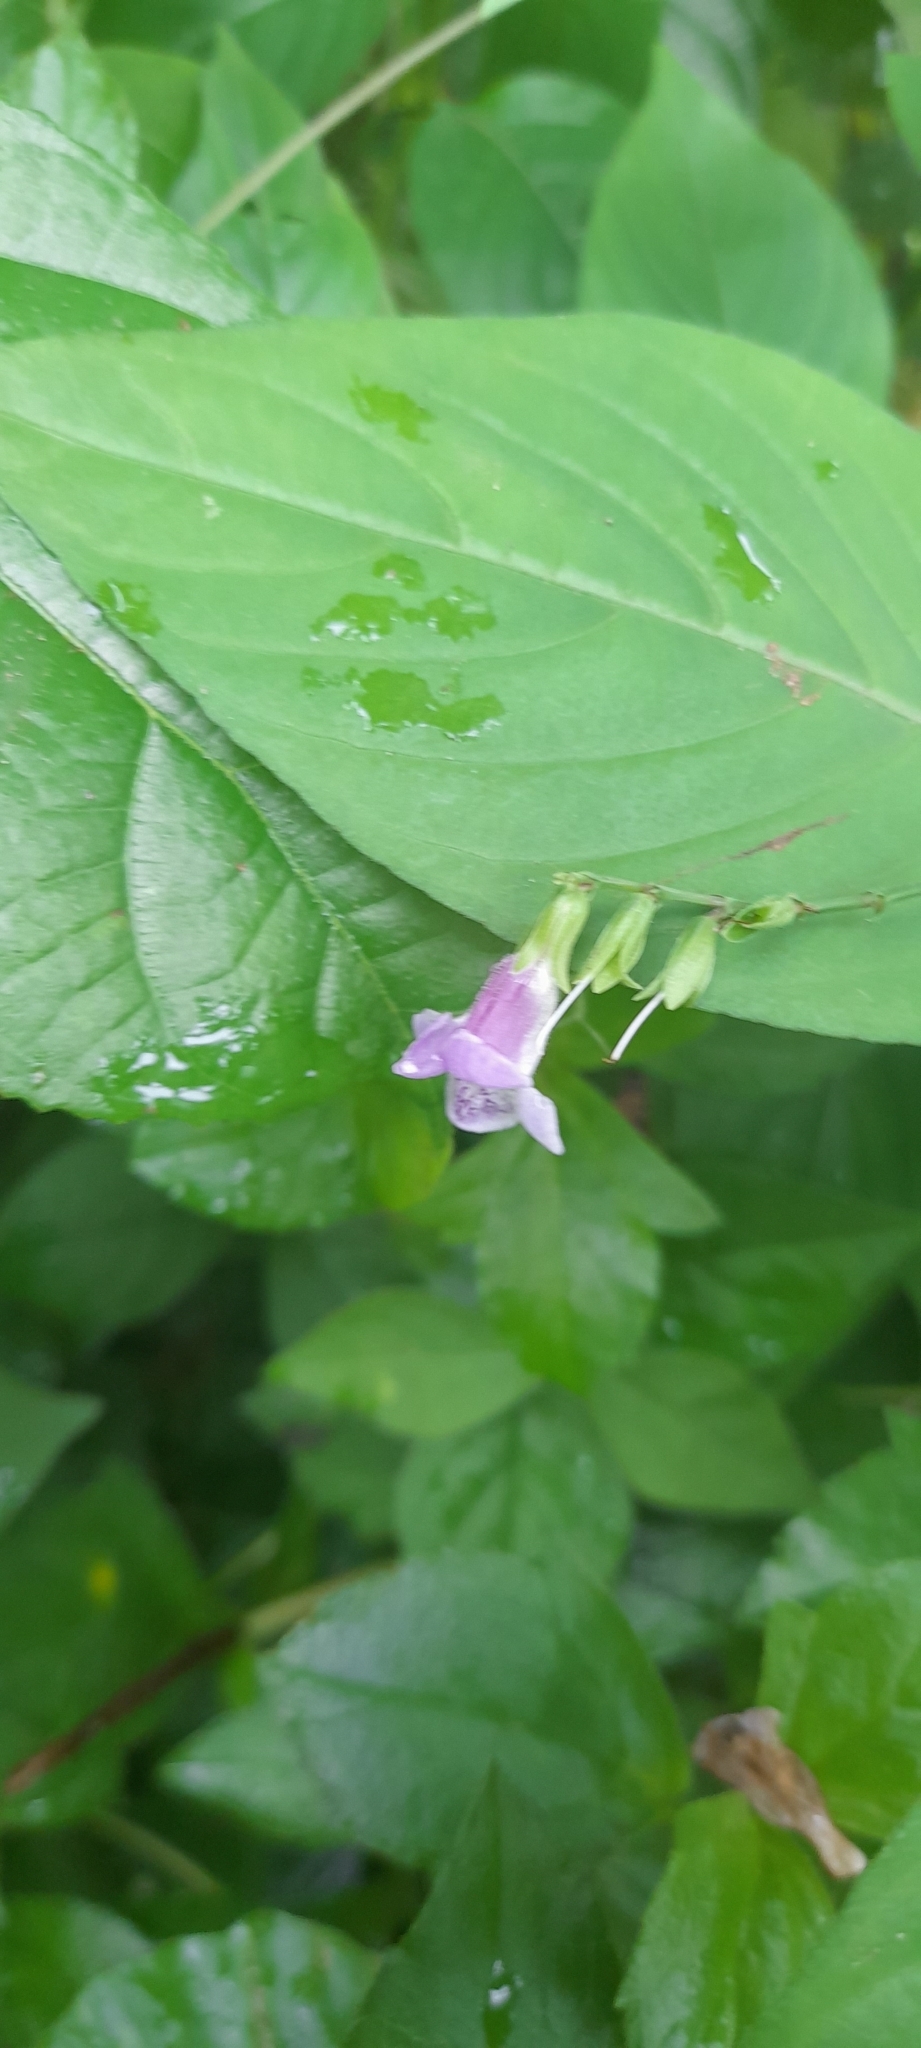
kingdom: Plantae
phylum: Tracheophyta
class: Magnoliopsida
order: Lamiales
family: Acanthaceae
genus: Asystasia
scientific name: Asystasia dalzelliana
